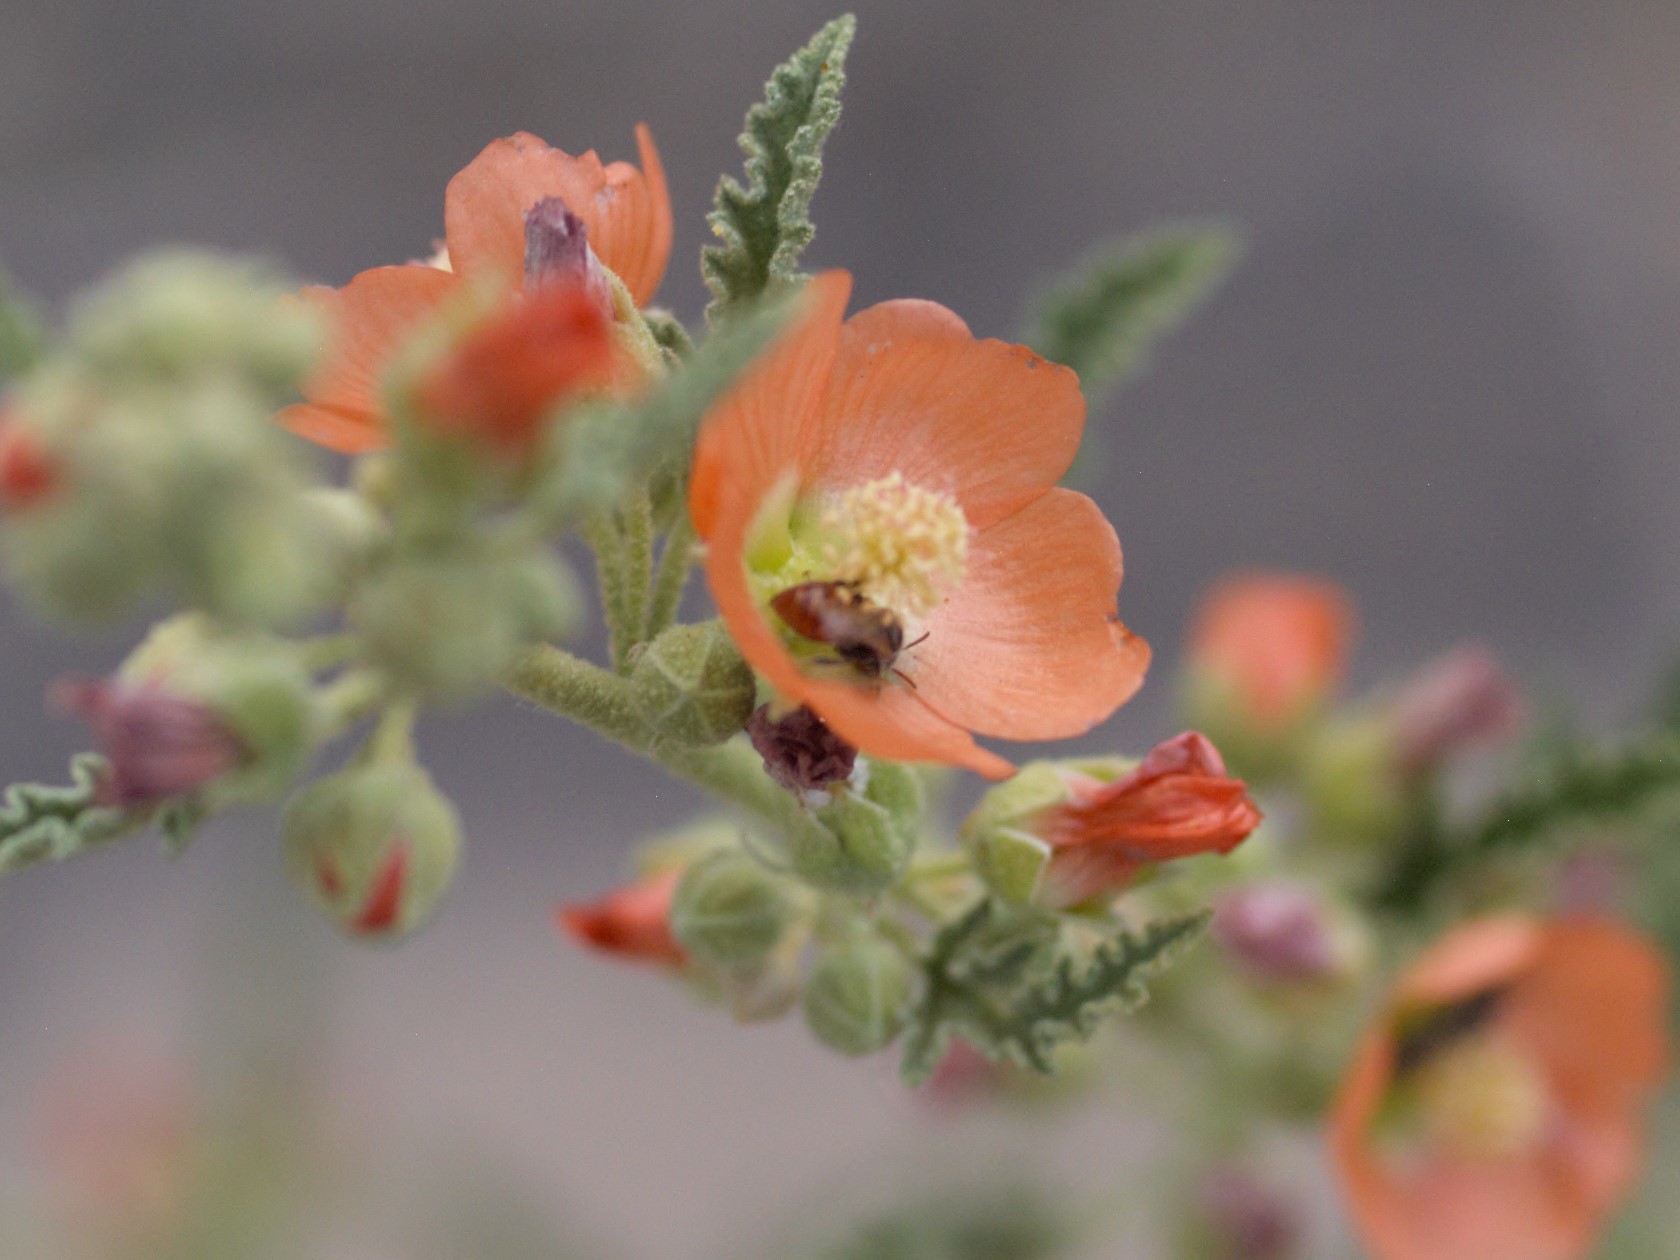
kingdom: Animalia
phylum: Arthropoda
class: Insecta
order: Hymenoptera
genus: Macroteropsis
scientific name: Macroteropsis
